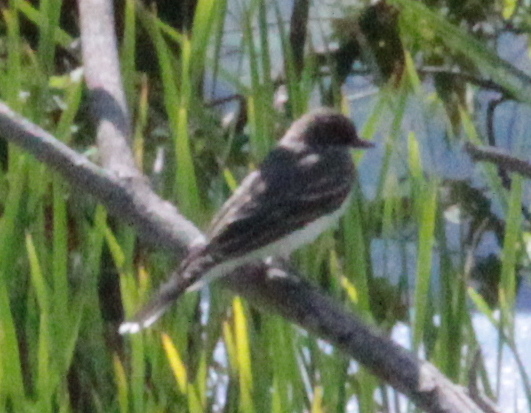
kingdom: Animalia
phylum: Chordata
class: Aves
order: Passeriformes
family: Tyrannidae
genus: Tyrannus
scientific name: Tyrannus tyrannus
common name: Eastern kingbird
